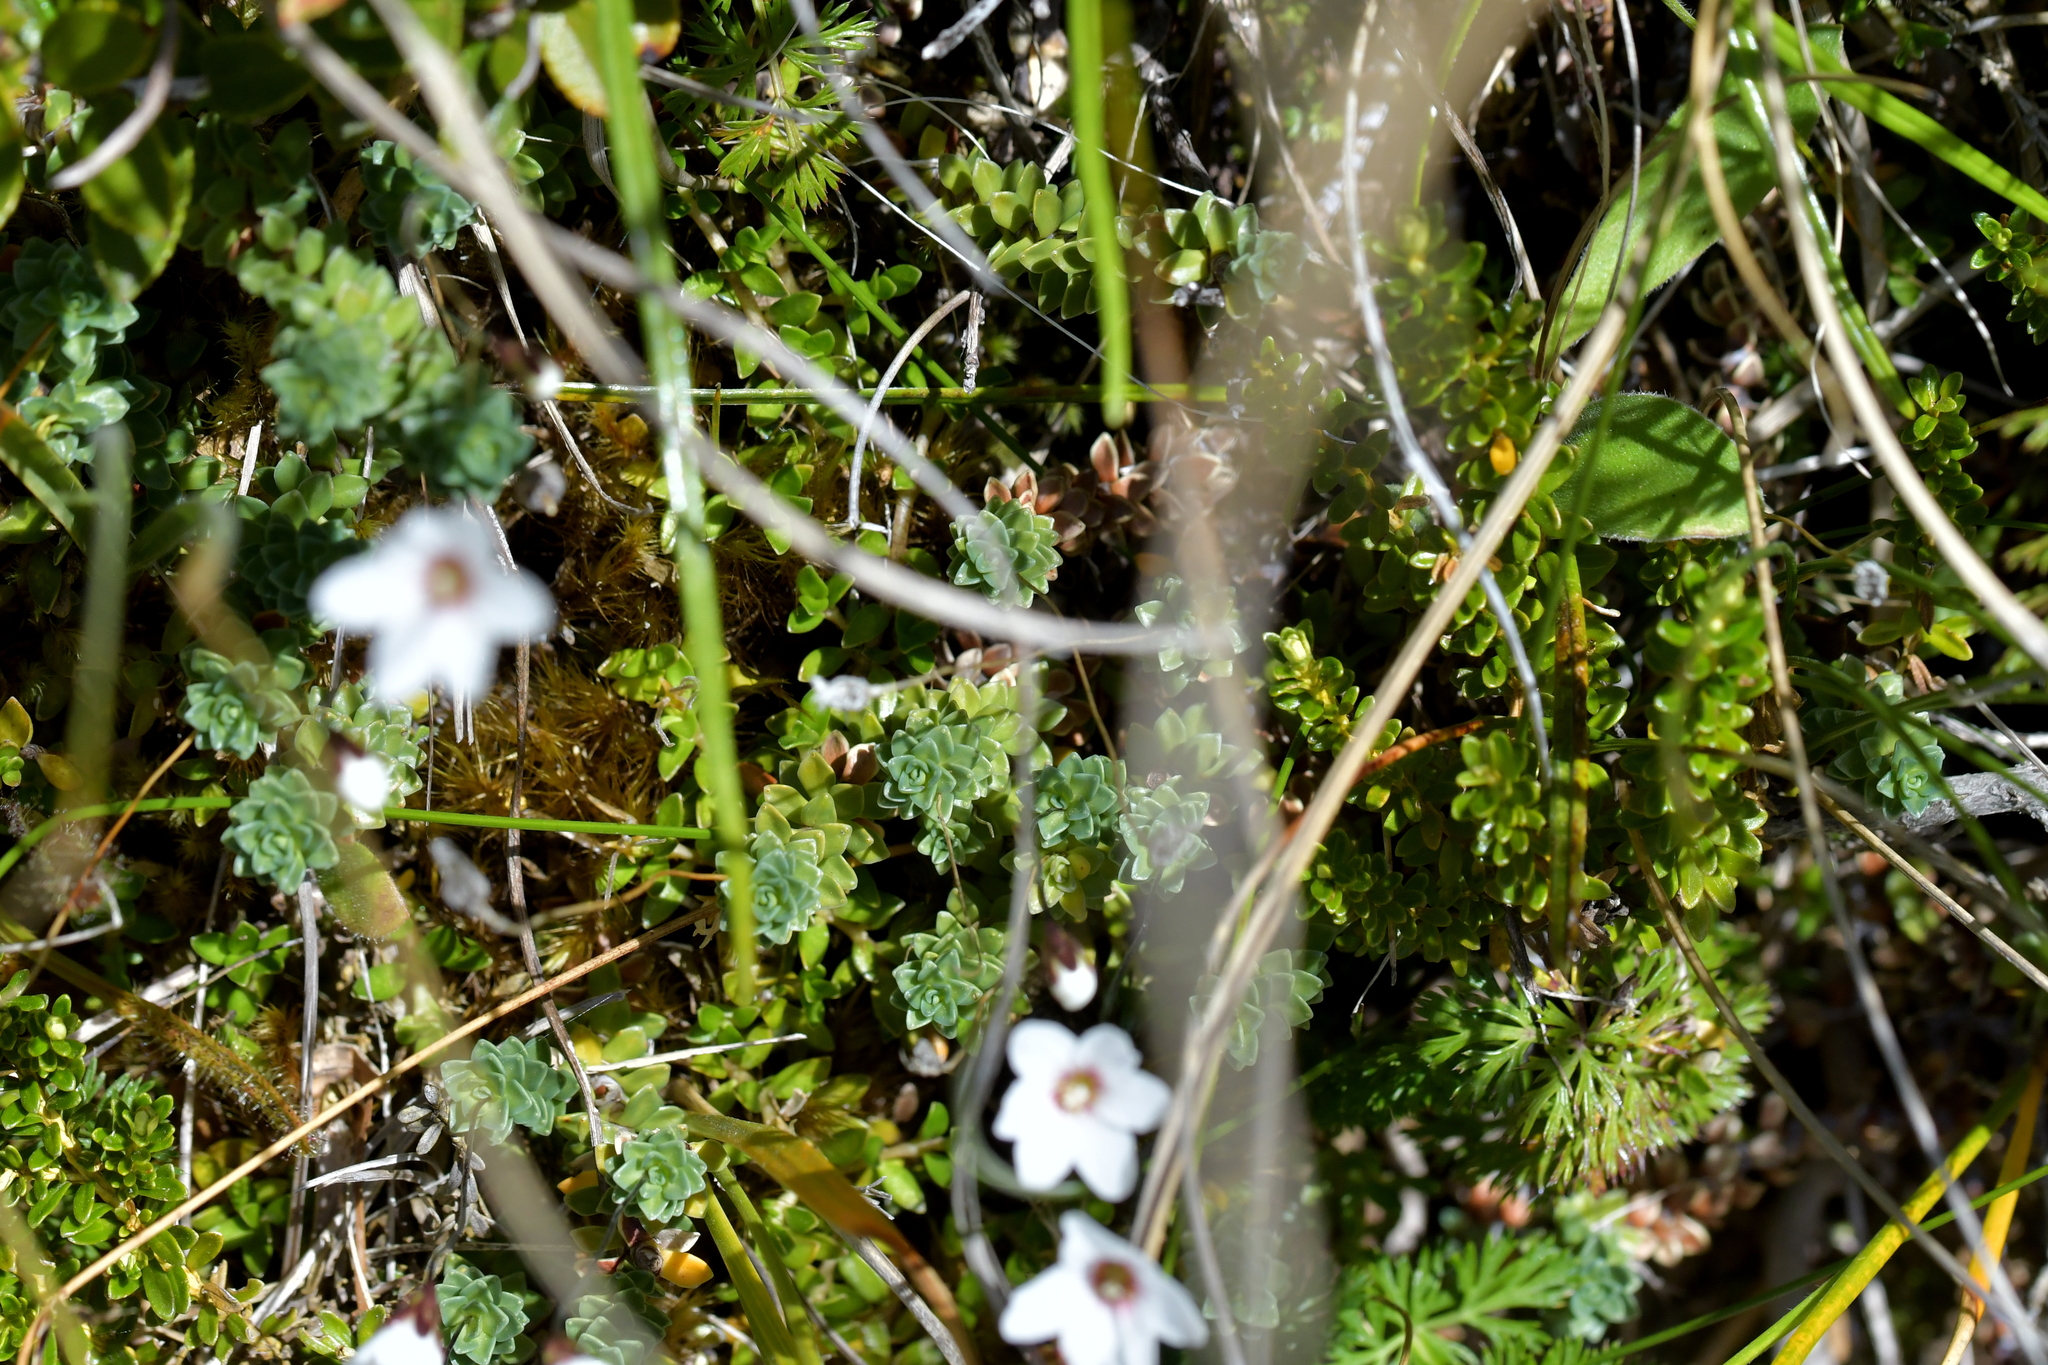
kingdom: Plantae
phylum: Tracheophyta
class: Magnoliopsida
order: Asterales
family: Stylidiaceae
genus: Forstera
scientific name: Forstera sedifolia
